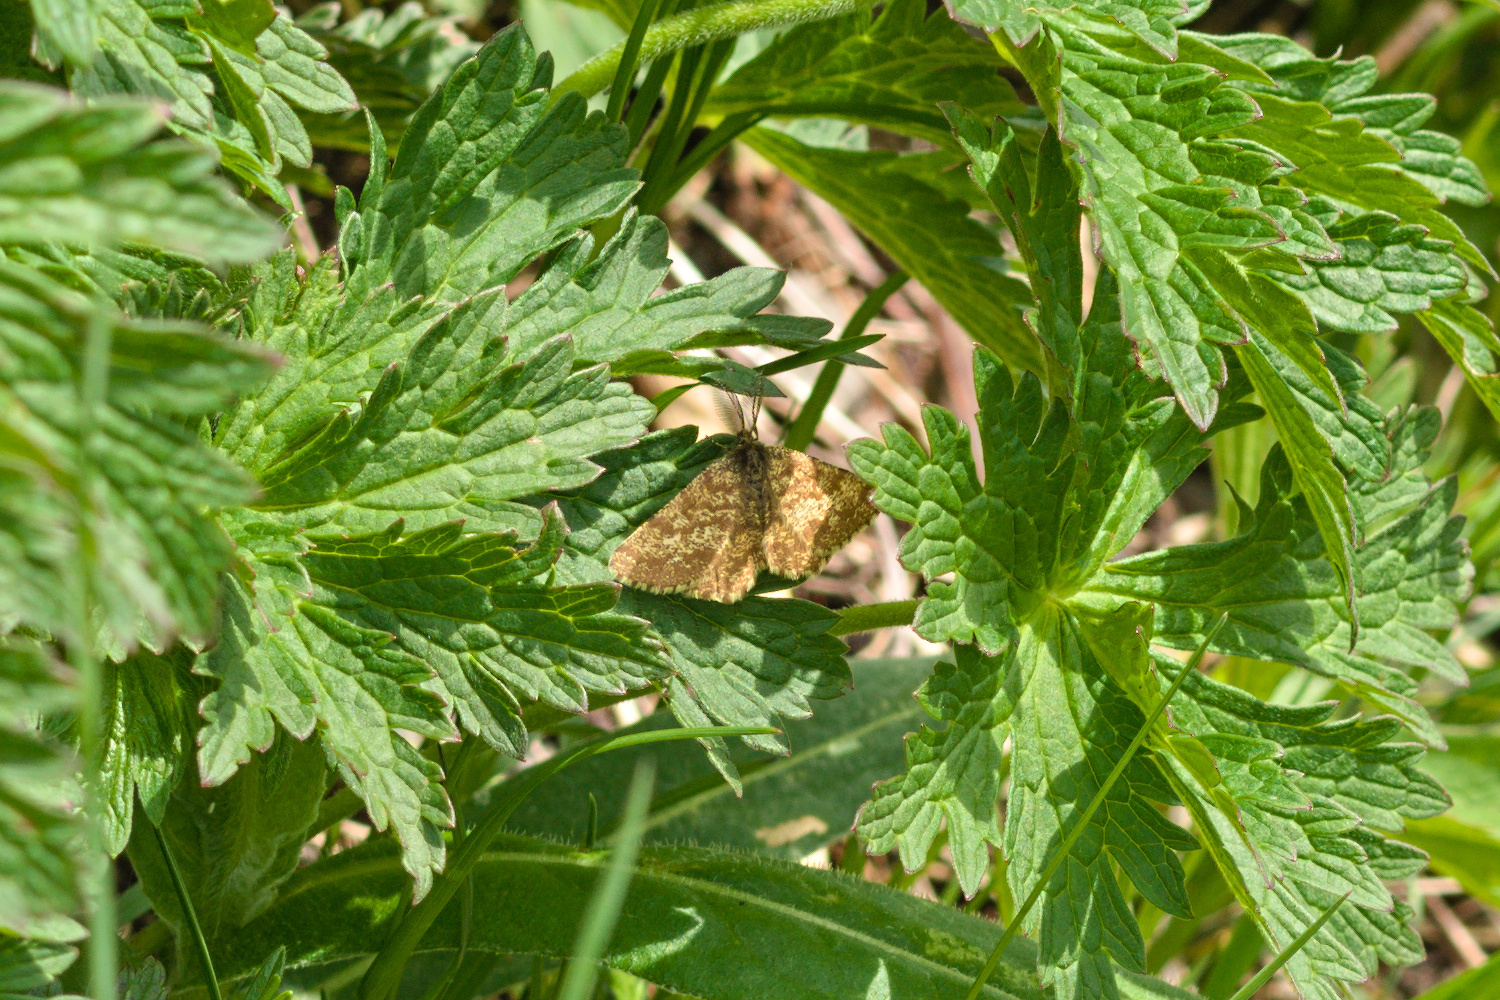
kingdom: Animalia
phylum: Arthropoda
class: Insecta
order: Lepidoptera
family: Geometridae
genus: Ematurga
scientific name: Ematurga atomaria
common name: Common heath
